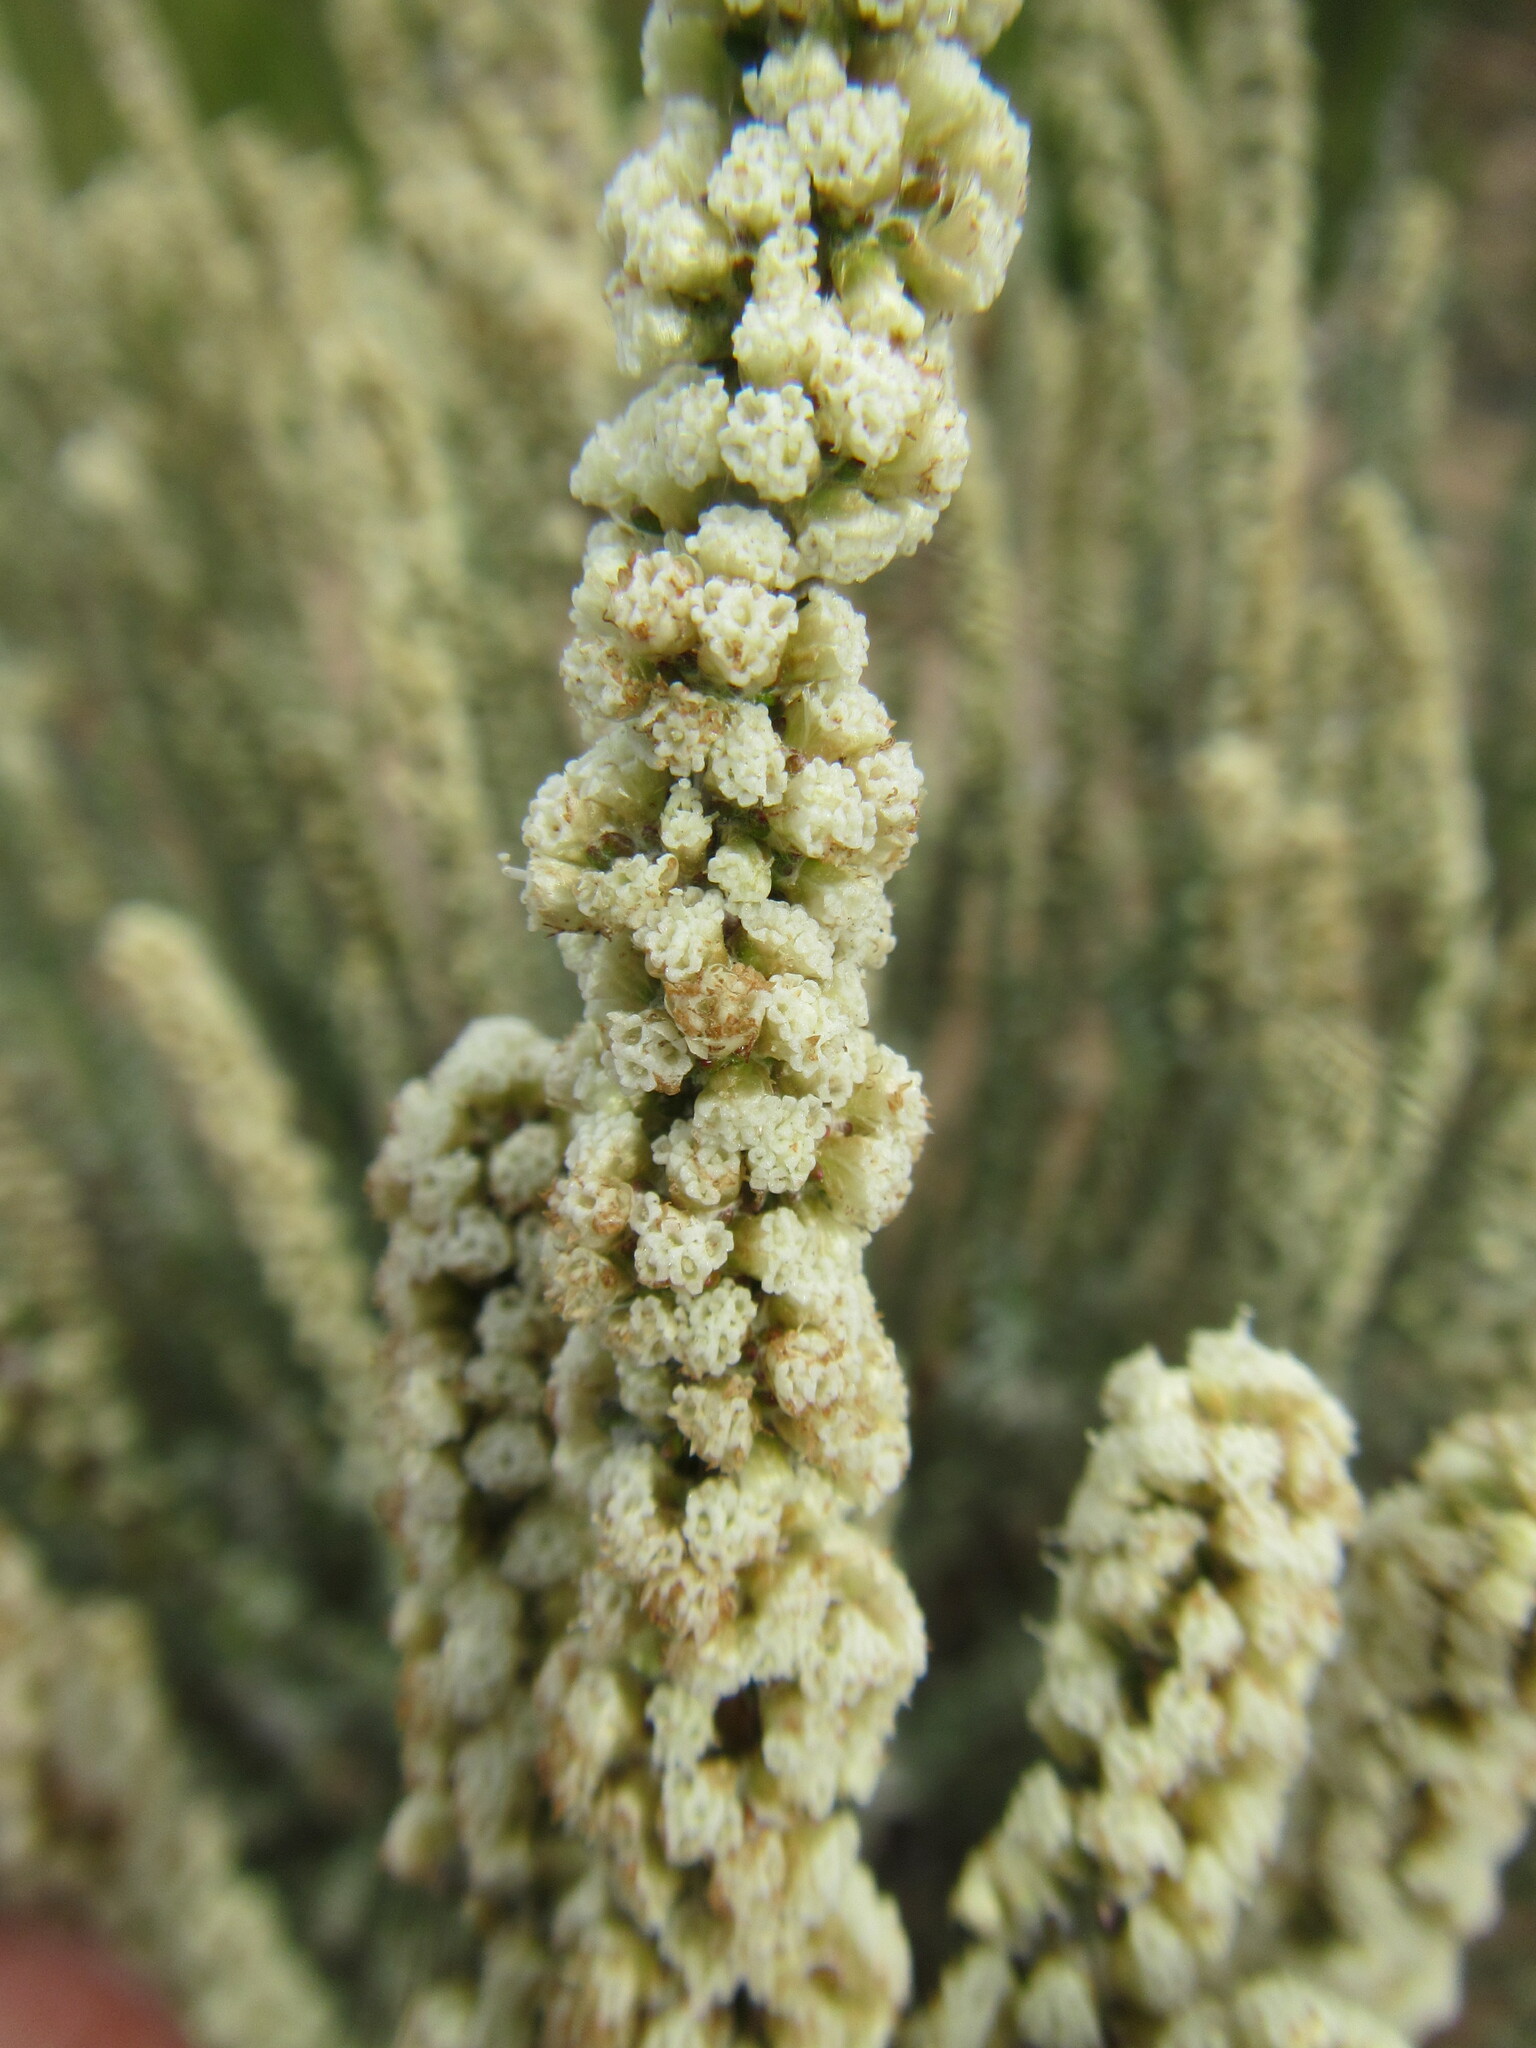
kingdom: Plantae
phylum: Tracheophyta
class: Magnoliopsida
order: Asterales
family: Asteraceae
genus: Ifloga
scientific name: Ifloga ambigua
